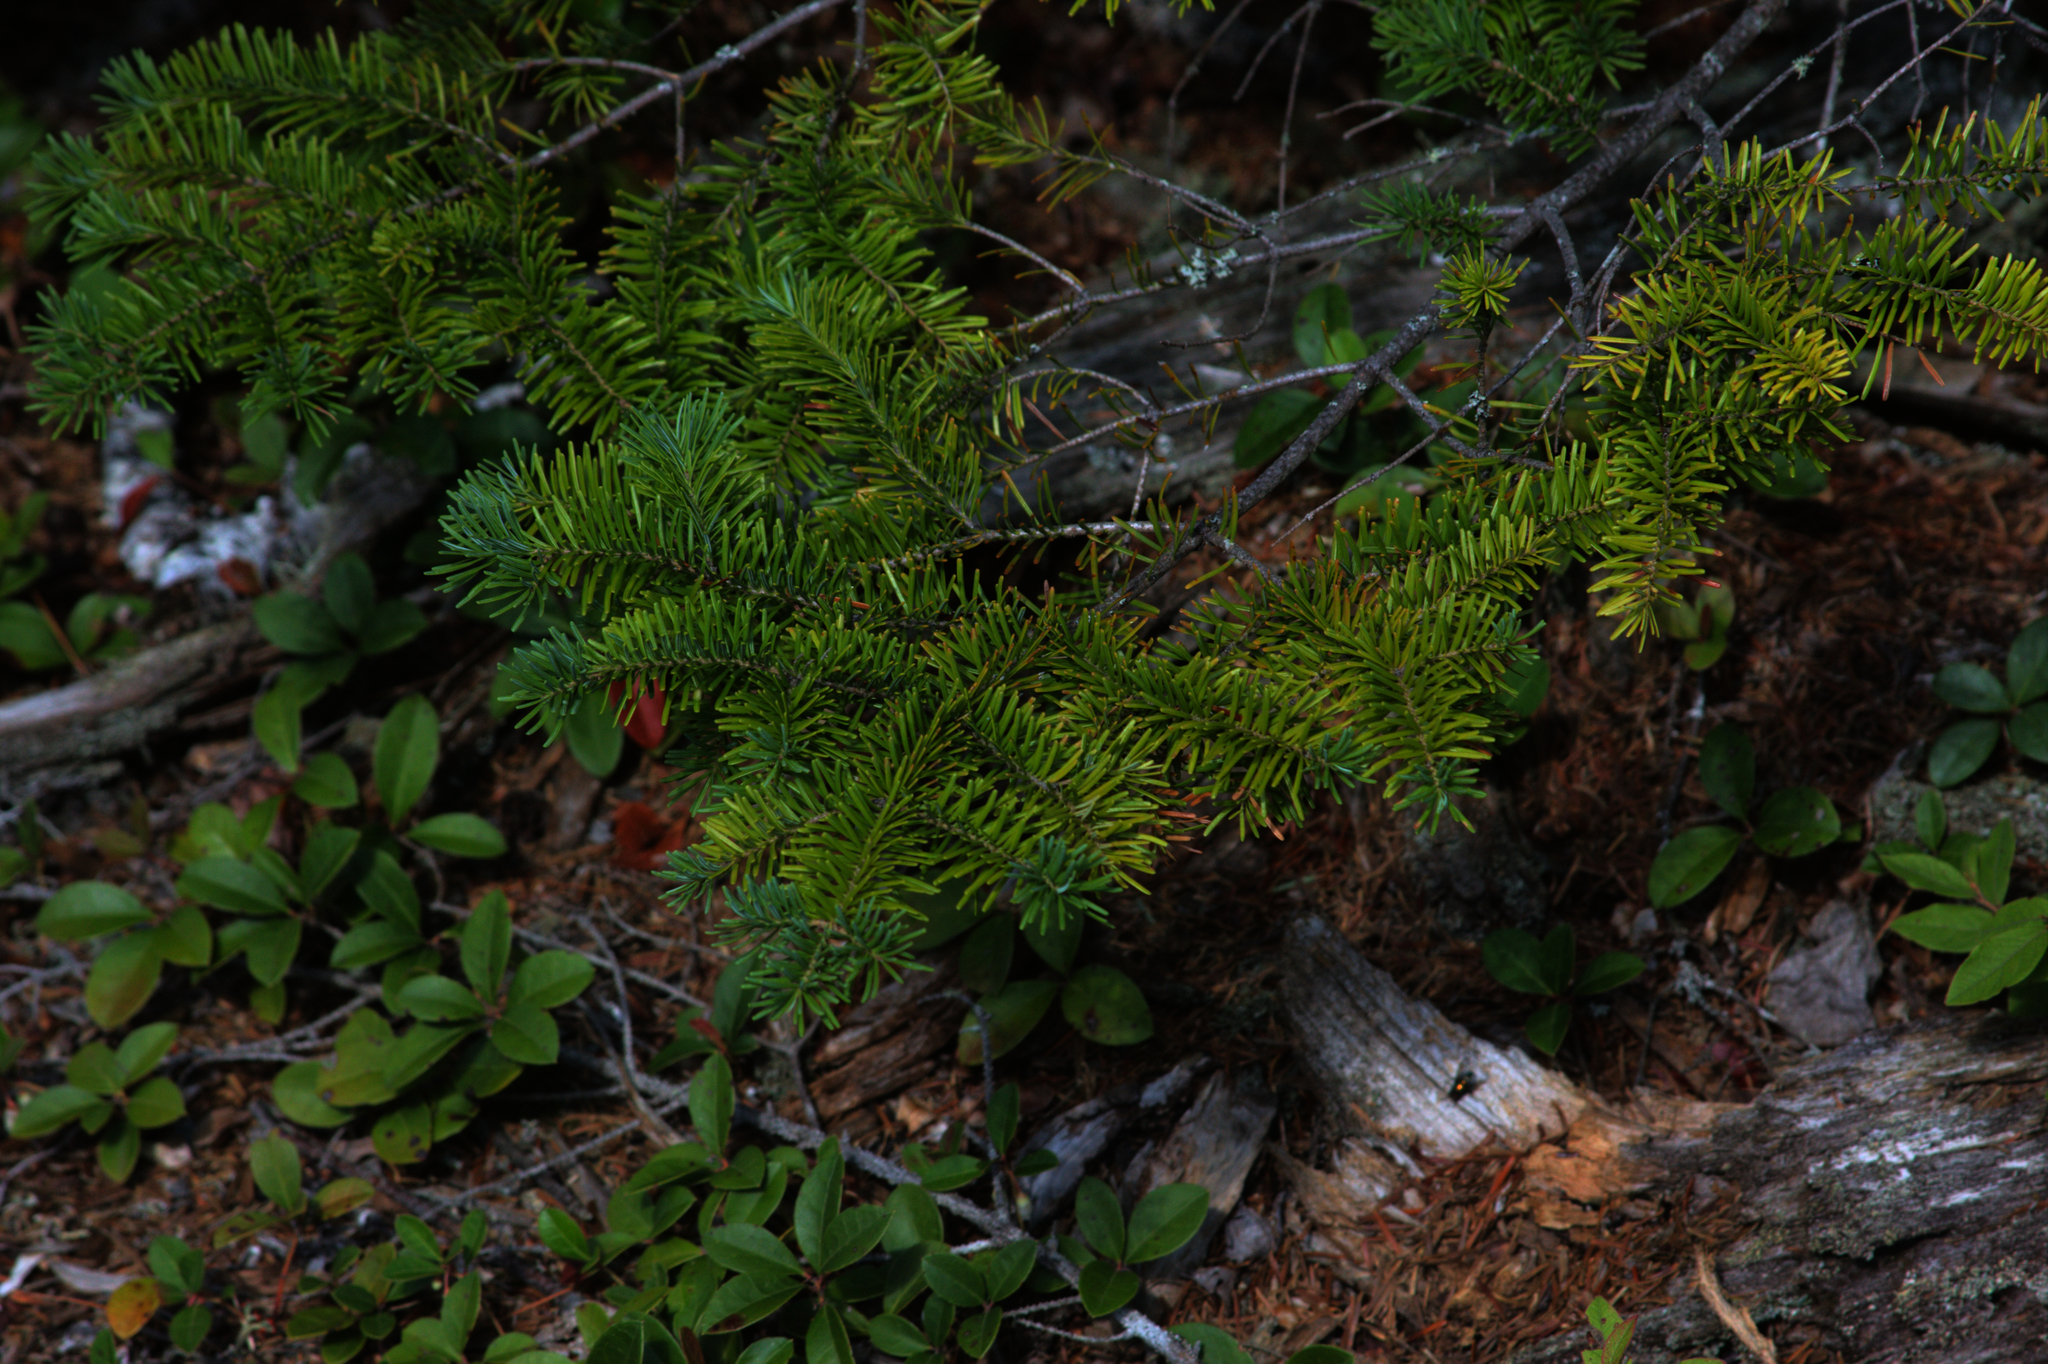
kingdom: Plantae
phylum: Tracheophyta
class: Magnoliopsida
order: Ericales
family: Ericaceae
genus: Gaultheria
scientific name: Gaultheria procumbens
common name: Checkerberry
